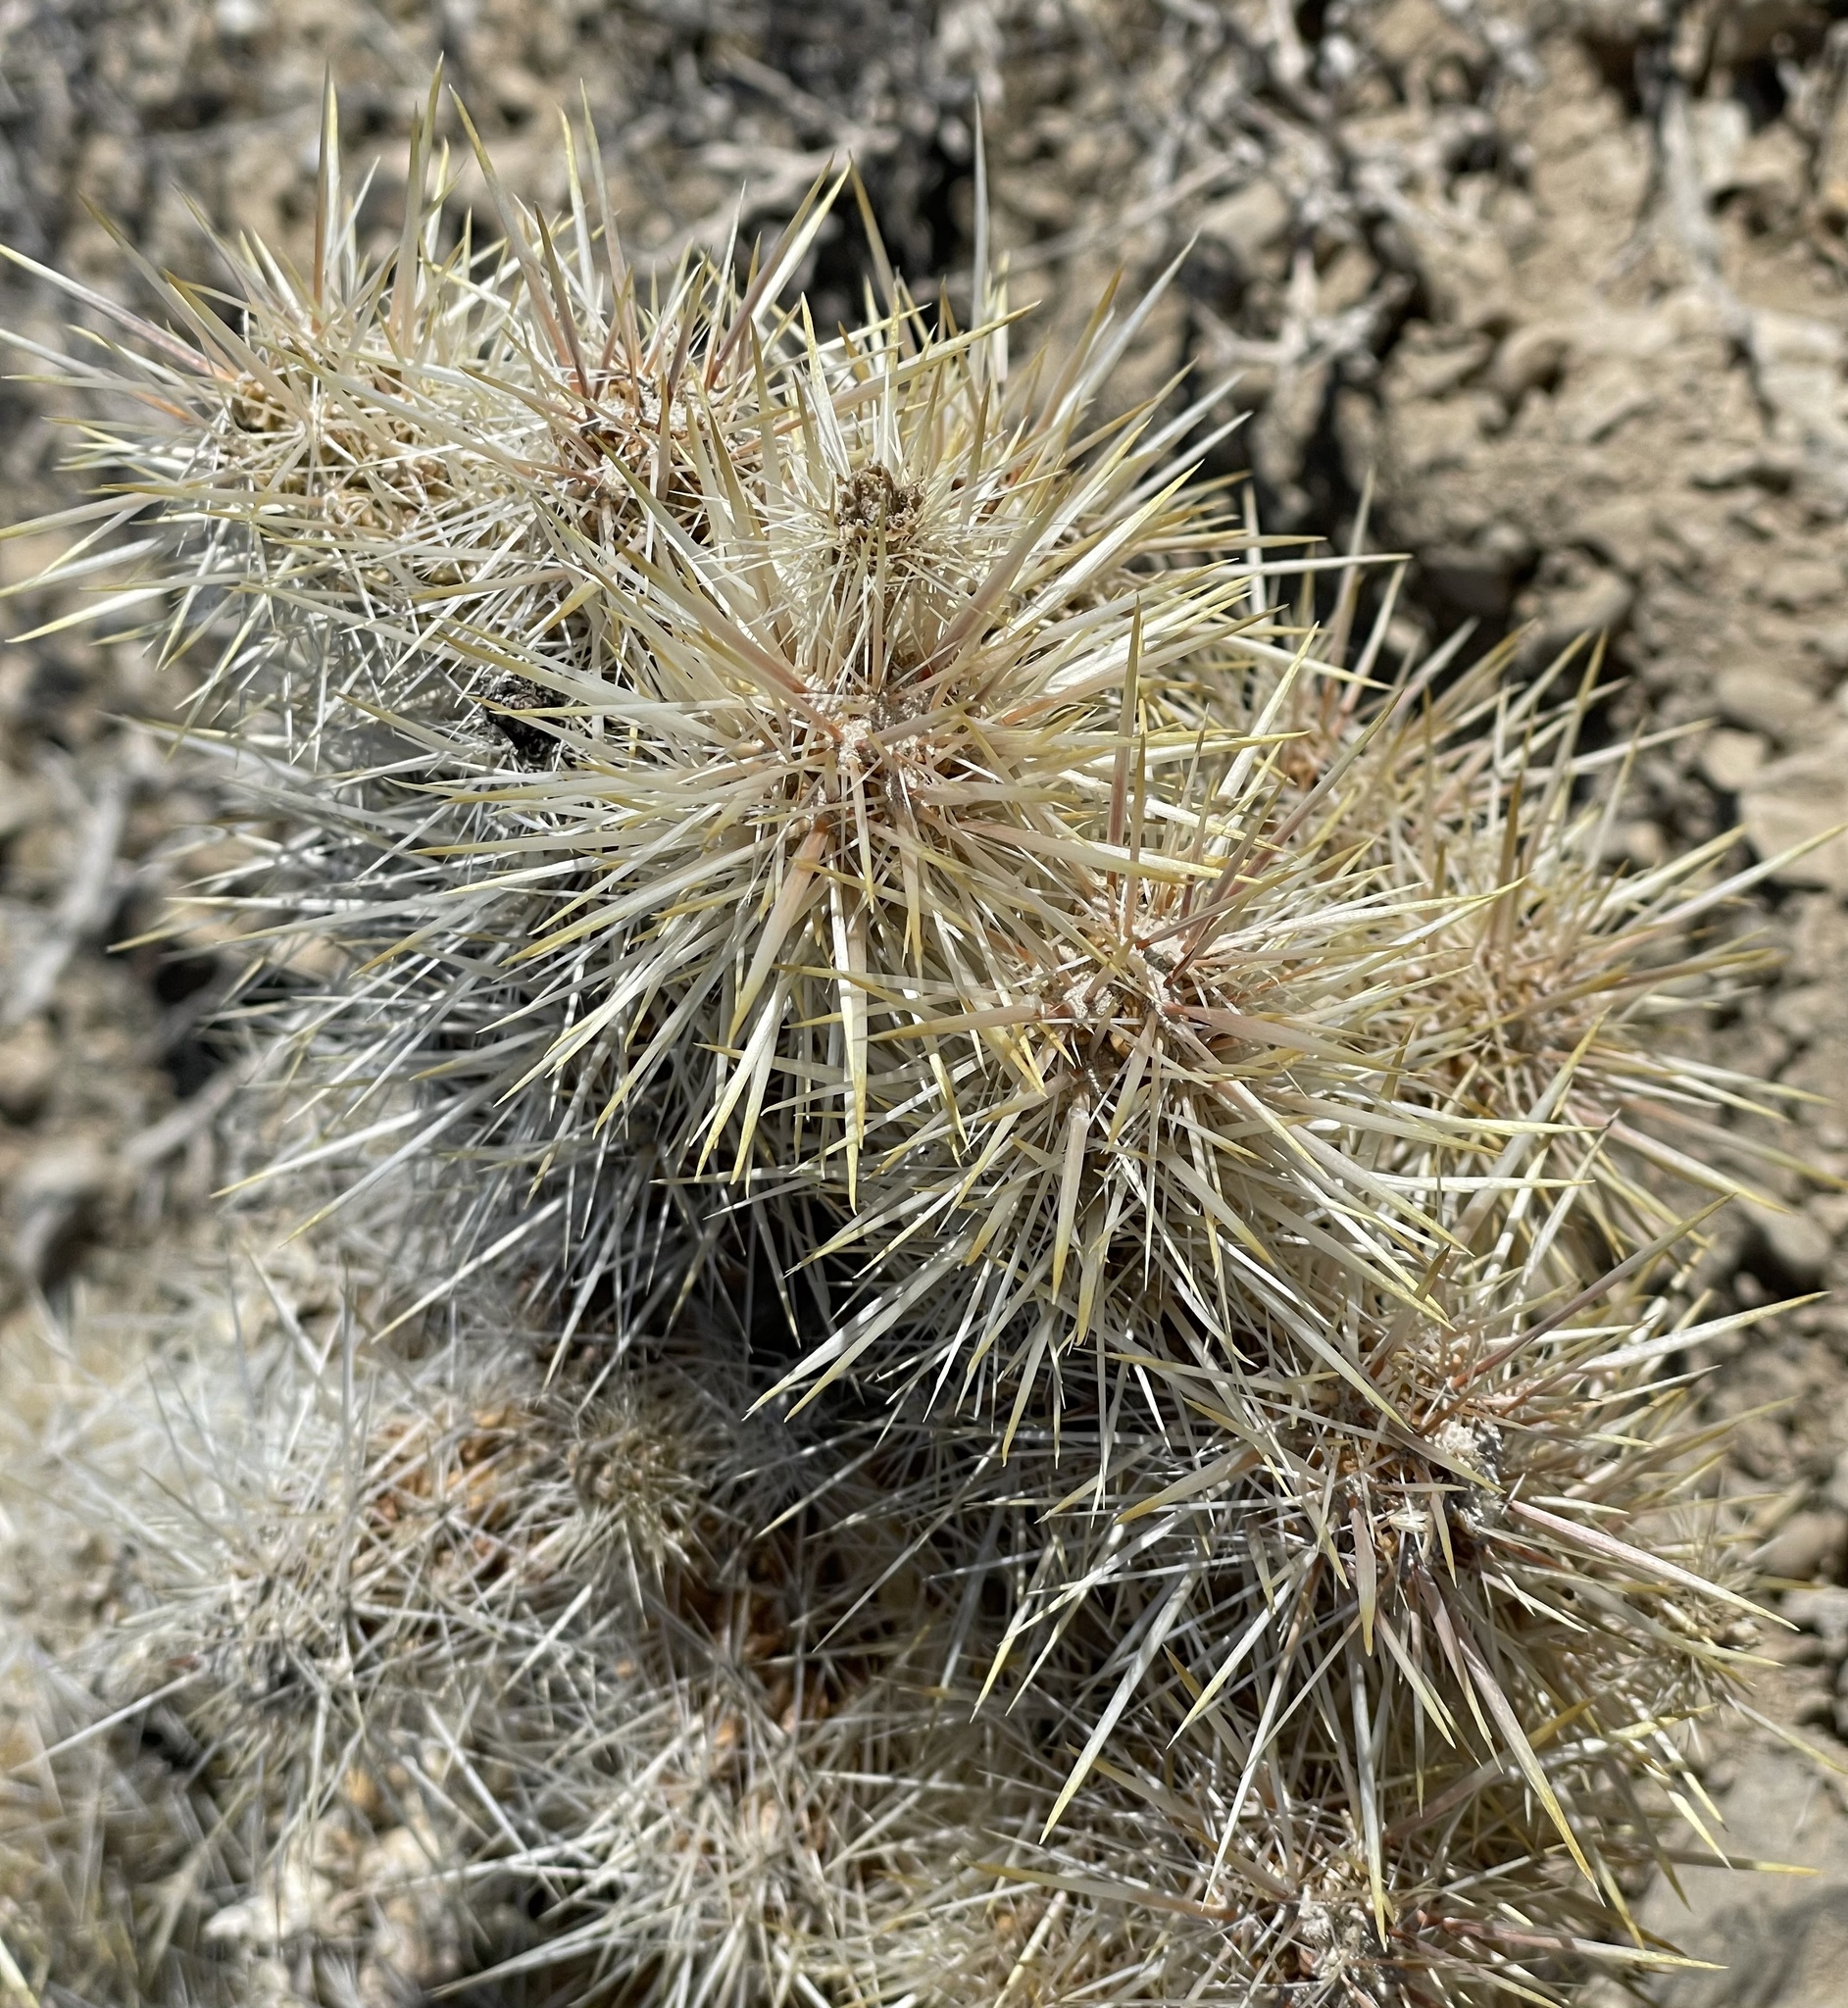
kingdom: Plantae
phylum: Tracheophyta
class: Magnoliopsida
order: Caryophyllales
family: Cactaceae
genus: Cylindropuntia
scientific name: Cylindropuntia echinocarpa
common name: Ground cholla
